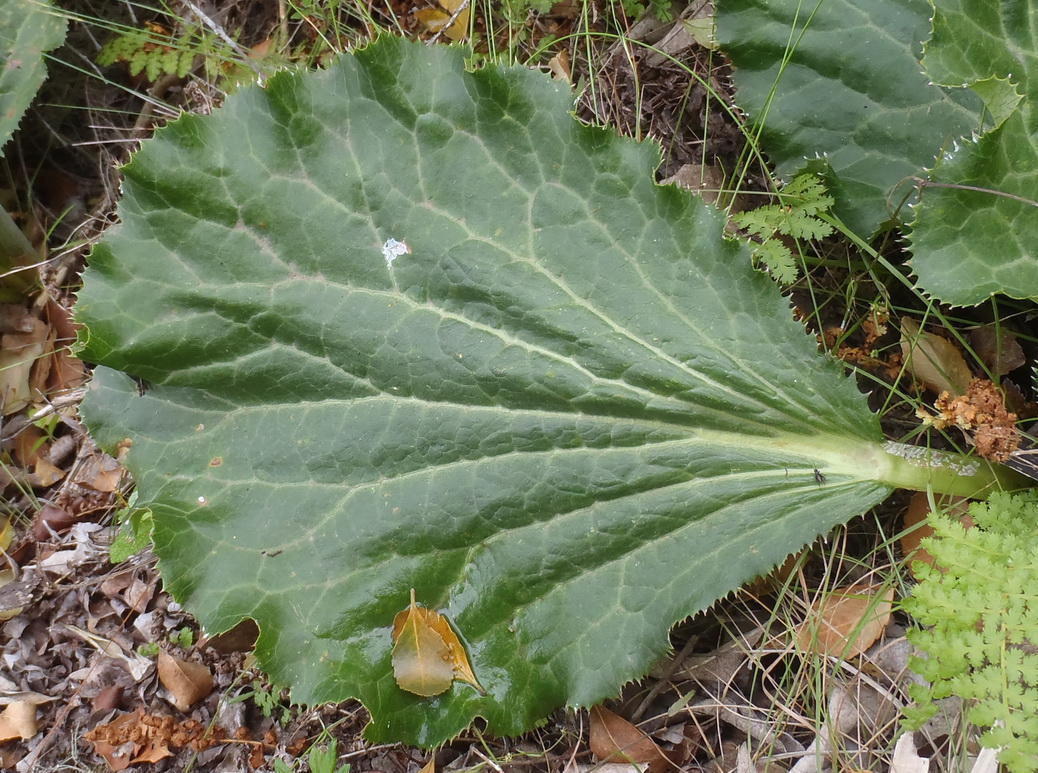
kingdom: Plantae
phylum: Tracheophyta
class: Magnoliopsida
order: Apiales
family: Apiaceae
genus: Lichtensteinia
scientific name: Lichtensteinia latifolia
